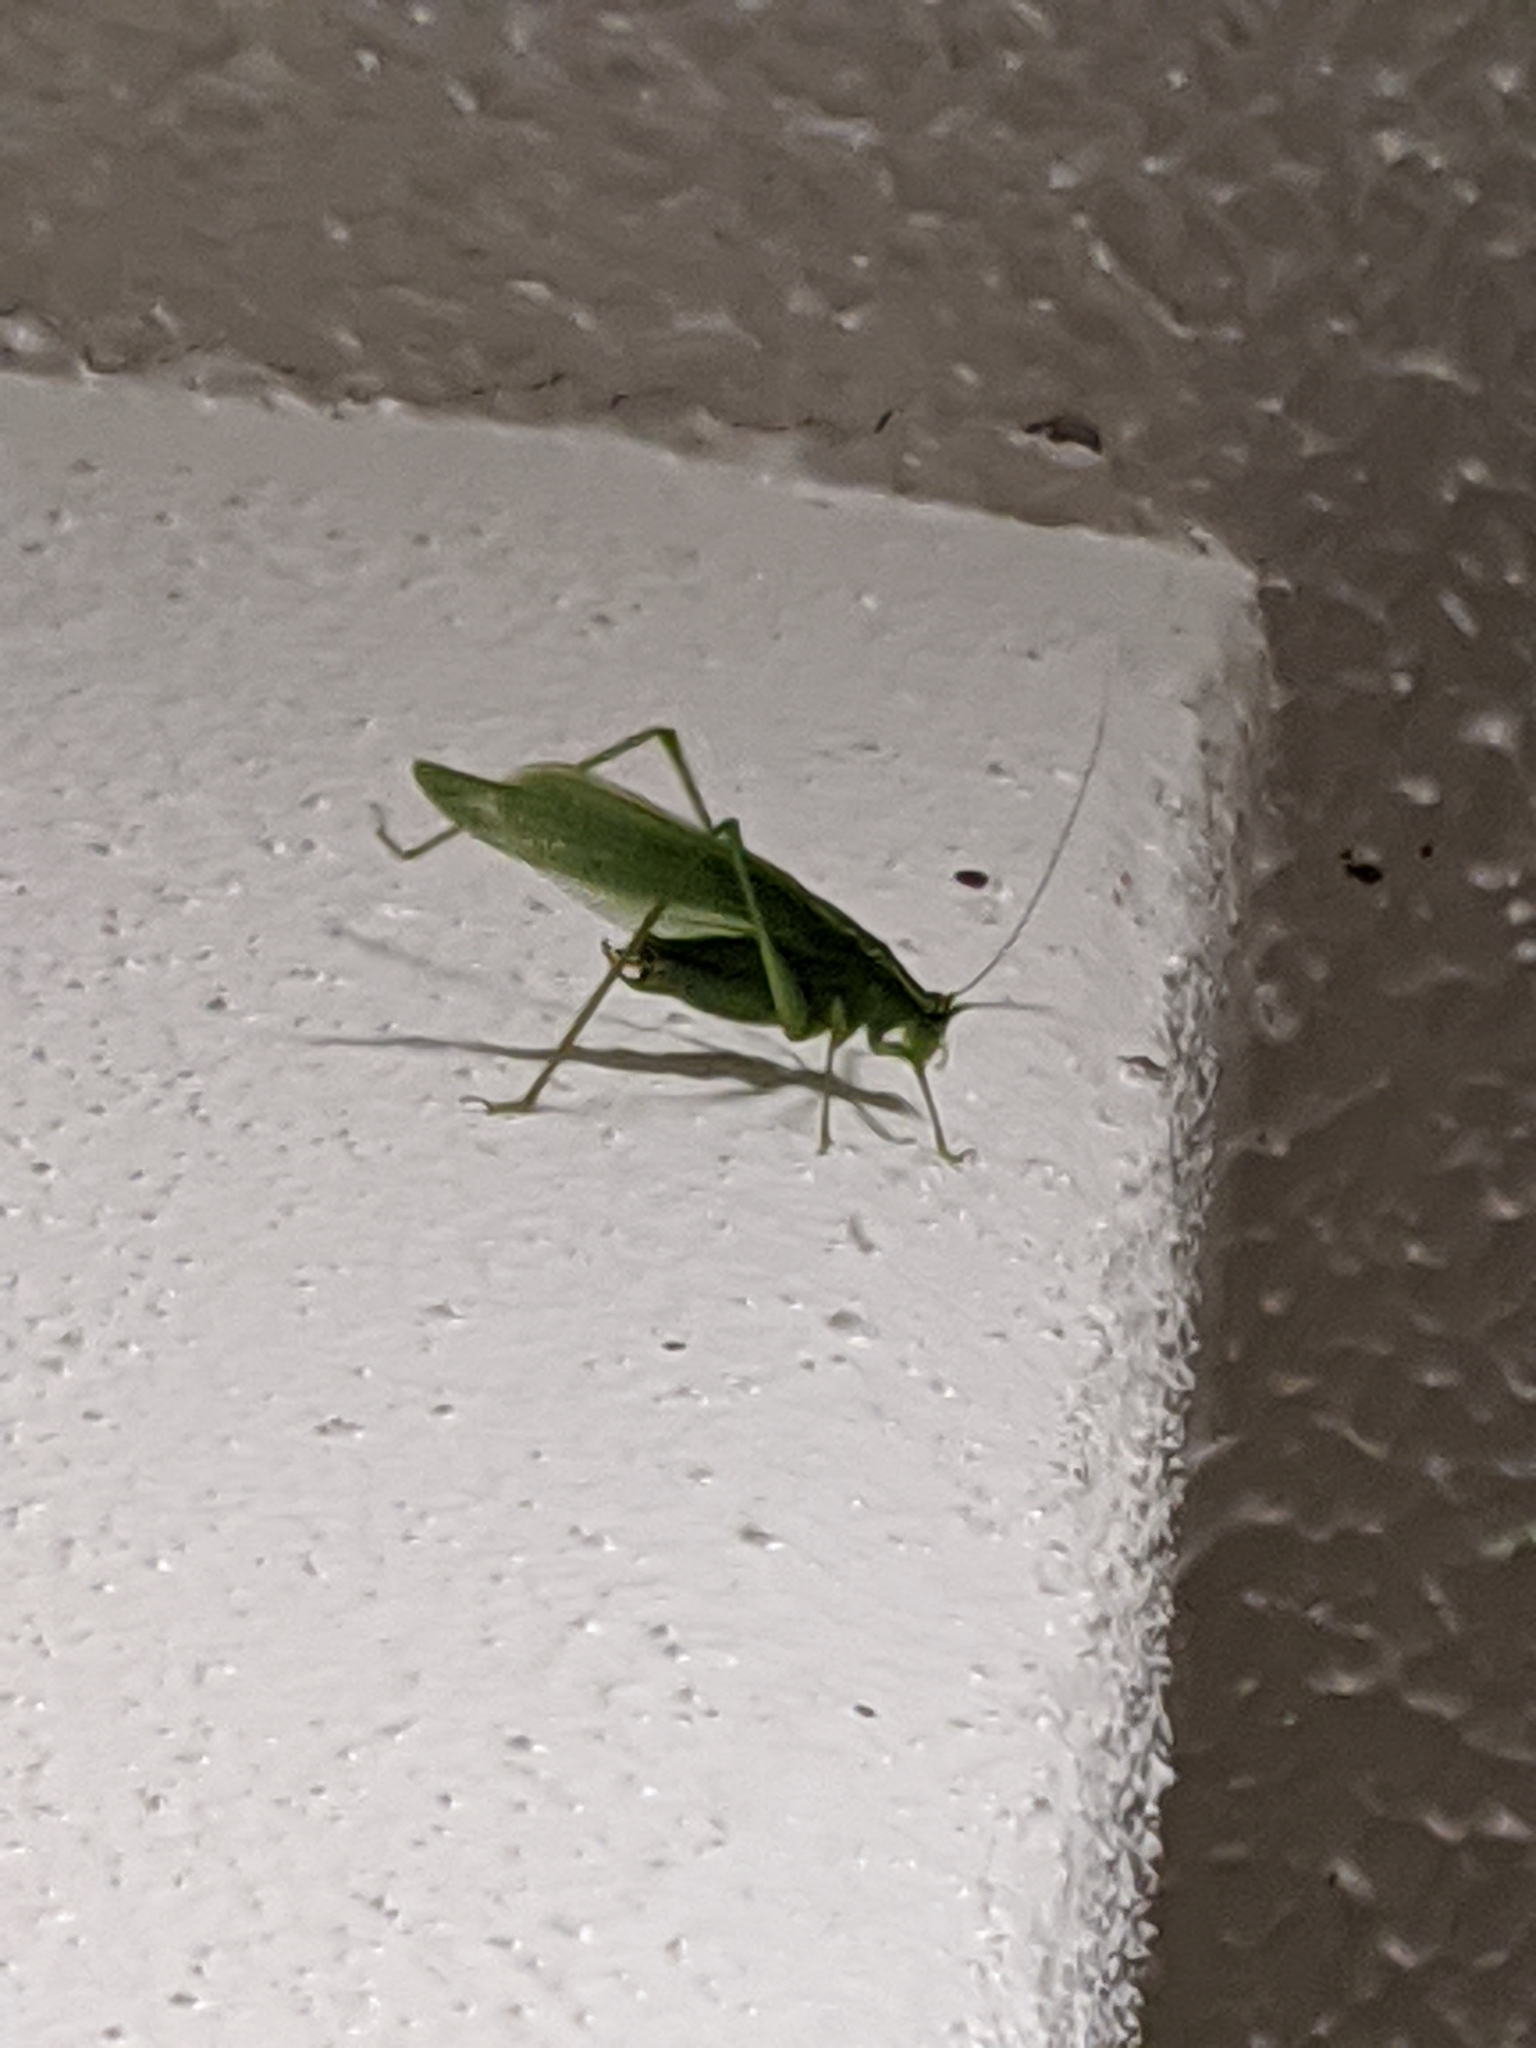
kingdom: Animalia
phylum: Arthropoda
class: Insecta
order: Orthoptera
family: Tettigoniidae
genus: Scudderia
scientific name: Scudderia septentrionalis
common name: Northern bush-katydid
